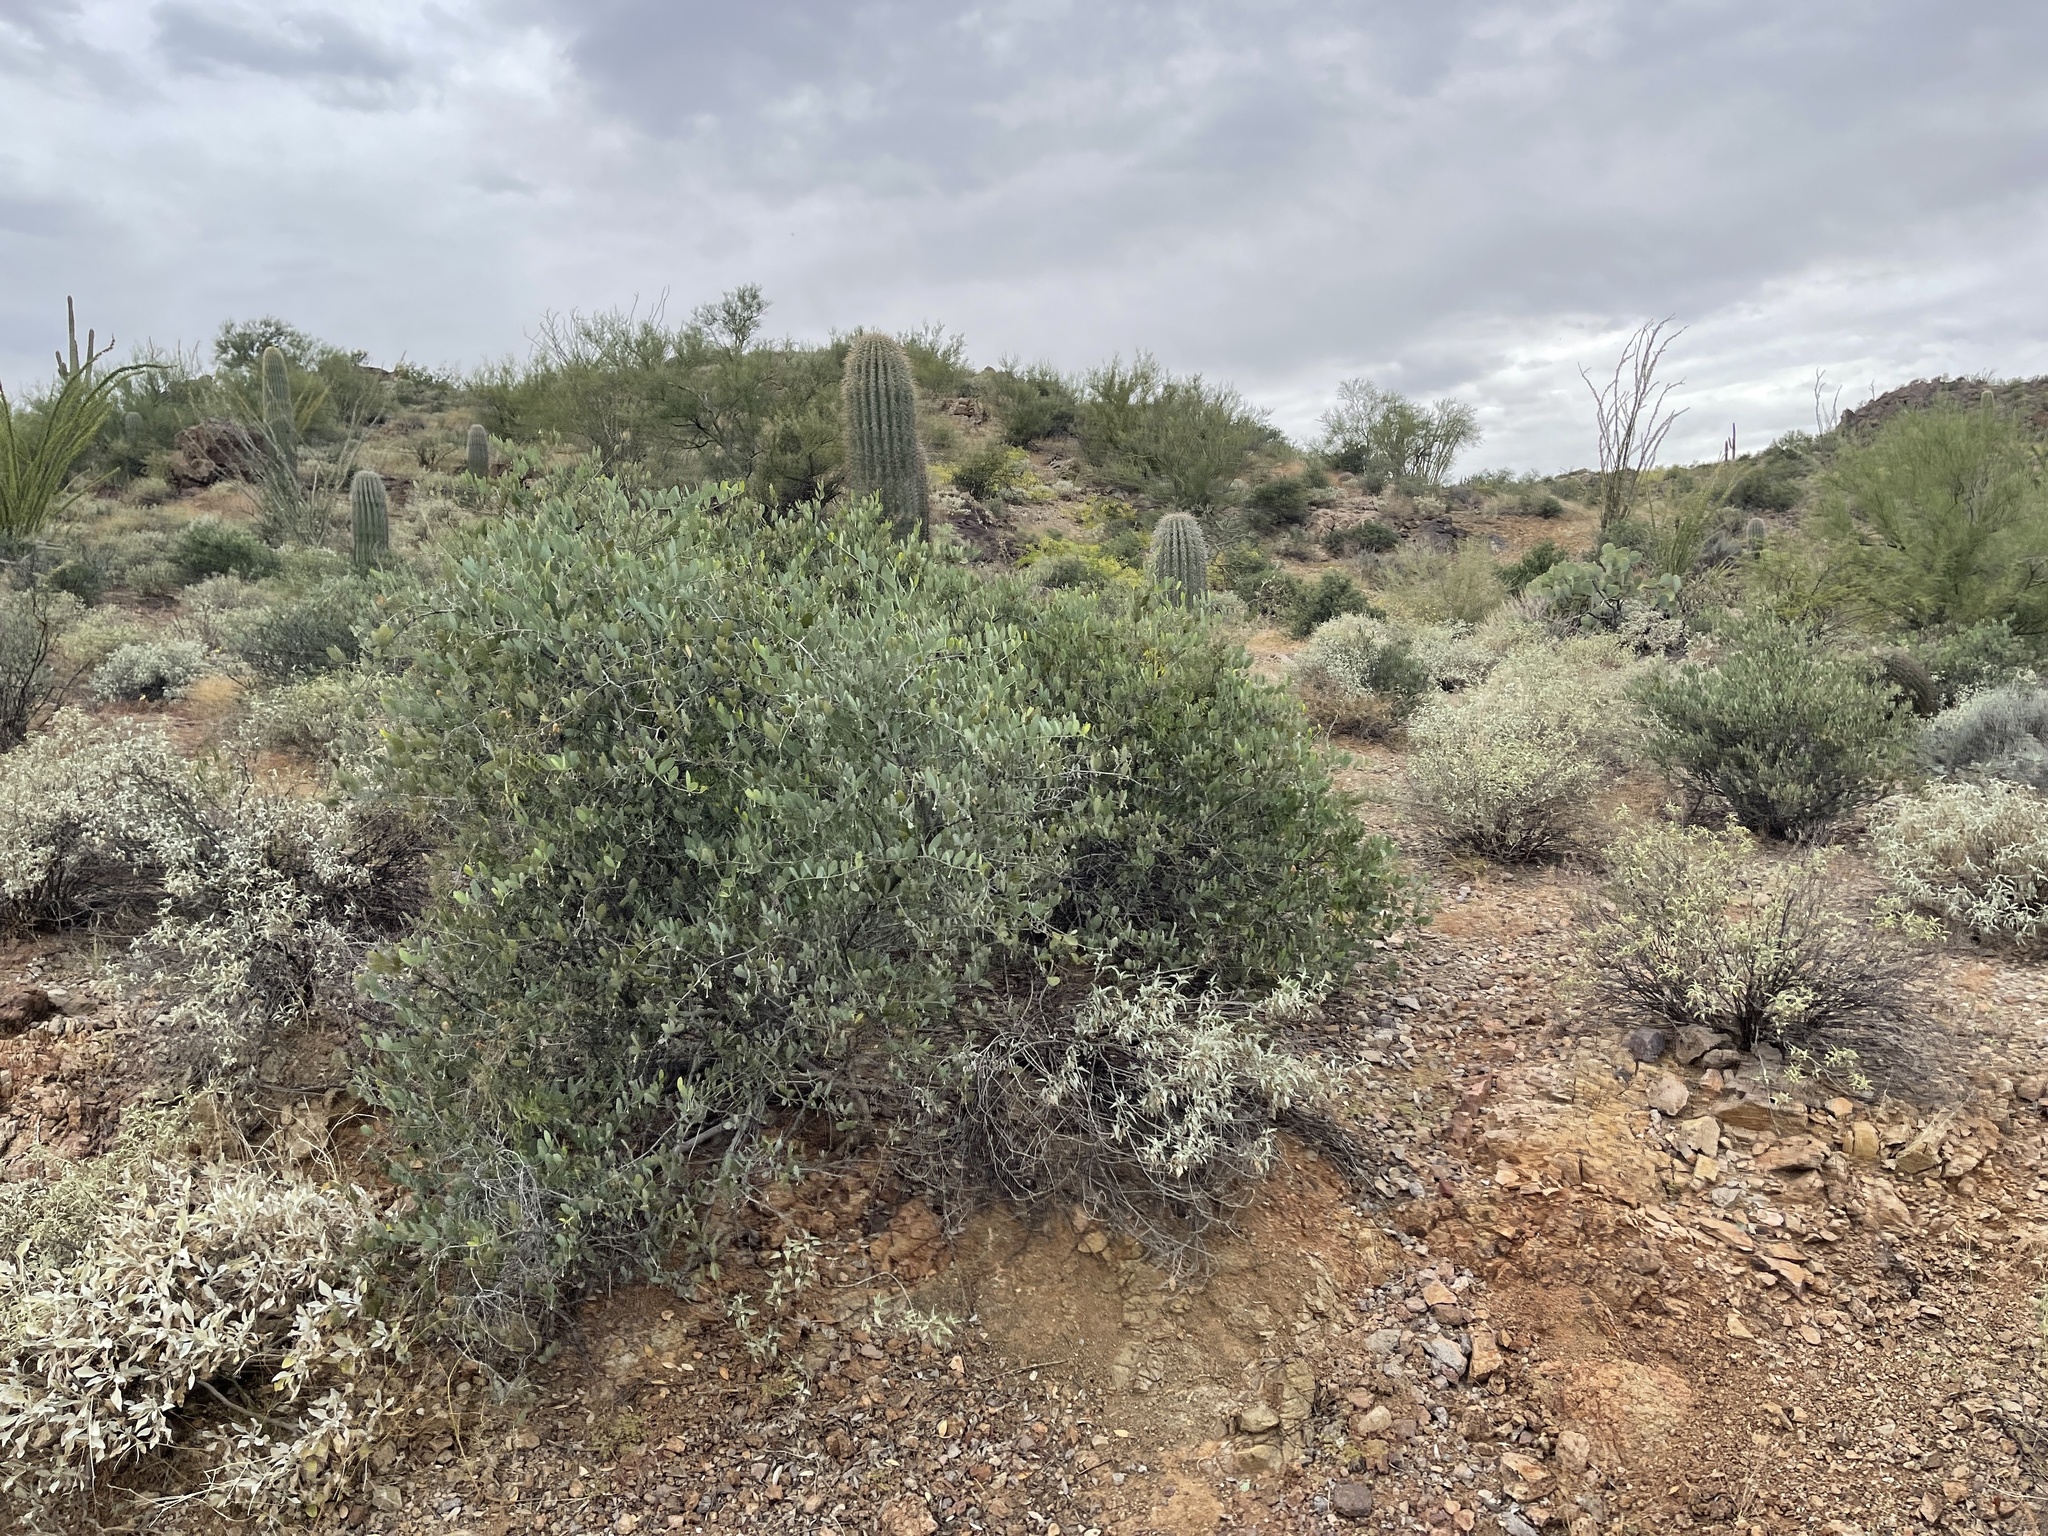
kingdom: Plantae
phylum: Tracheophyta
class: Magnoliopsida
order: Caryophyllales
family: Simmondsiaceae
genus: Simmondsia
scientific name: Simmondsia chinensis
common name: Jojoba
